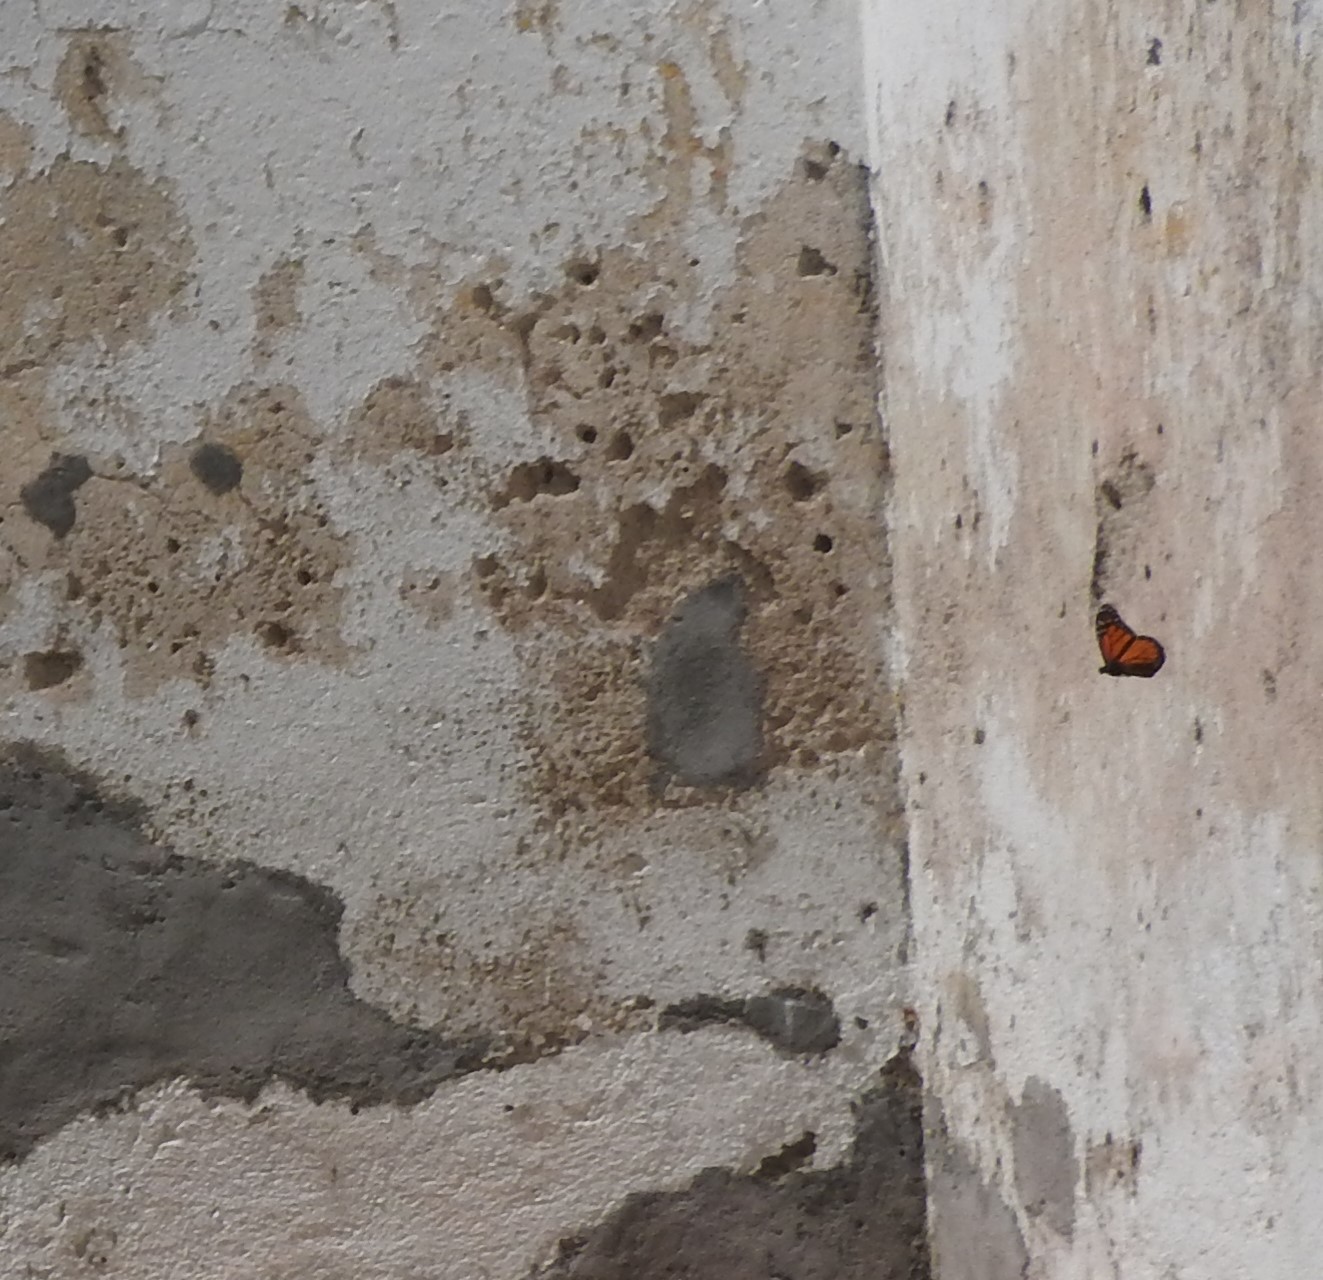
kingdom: Animalia
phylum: Arthropoda
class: Insecta
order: Lepidoptera
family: Nymphalidae
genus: Danaus
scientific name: Danaus plexippus
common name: Monarch
